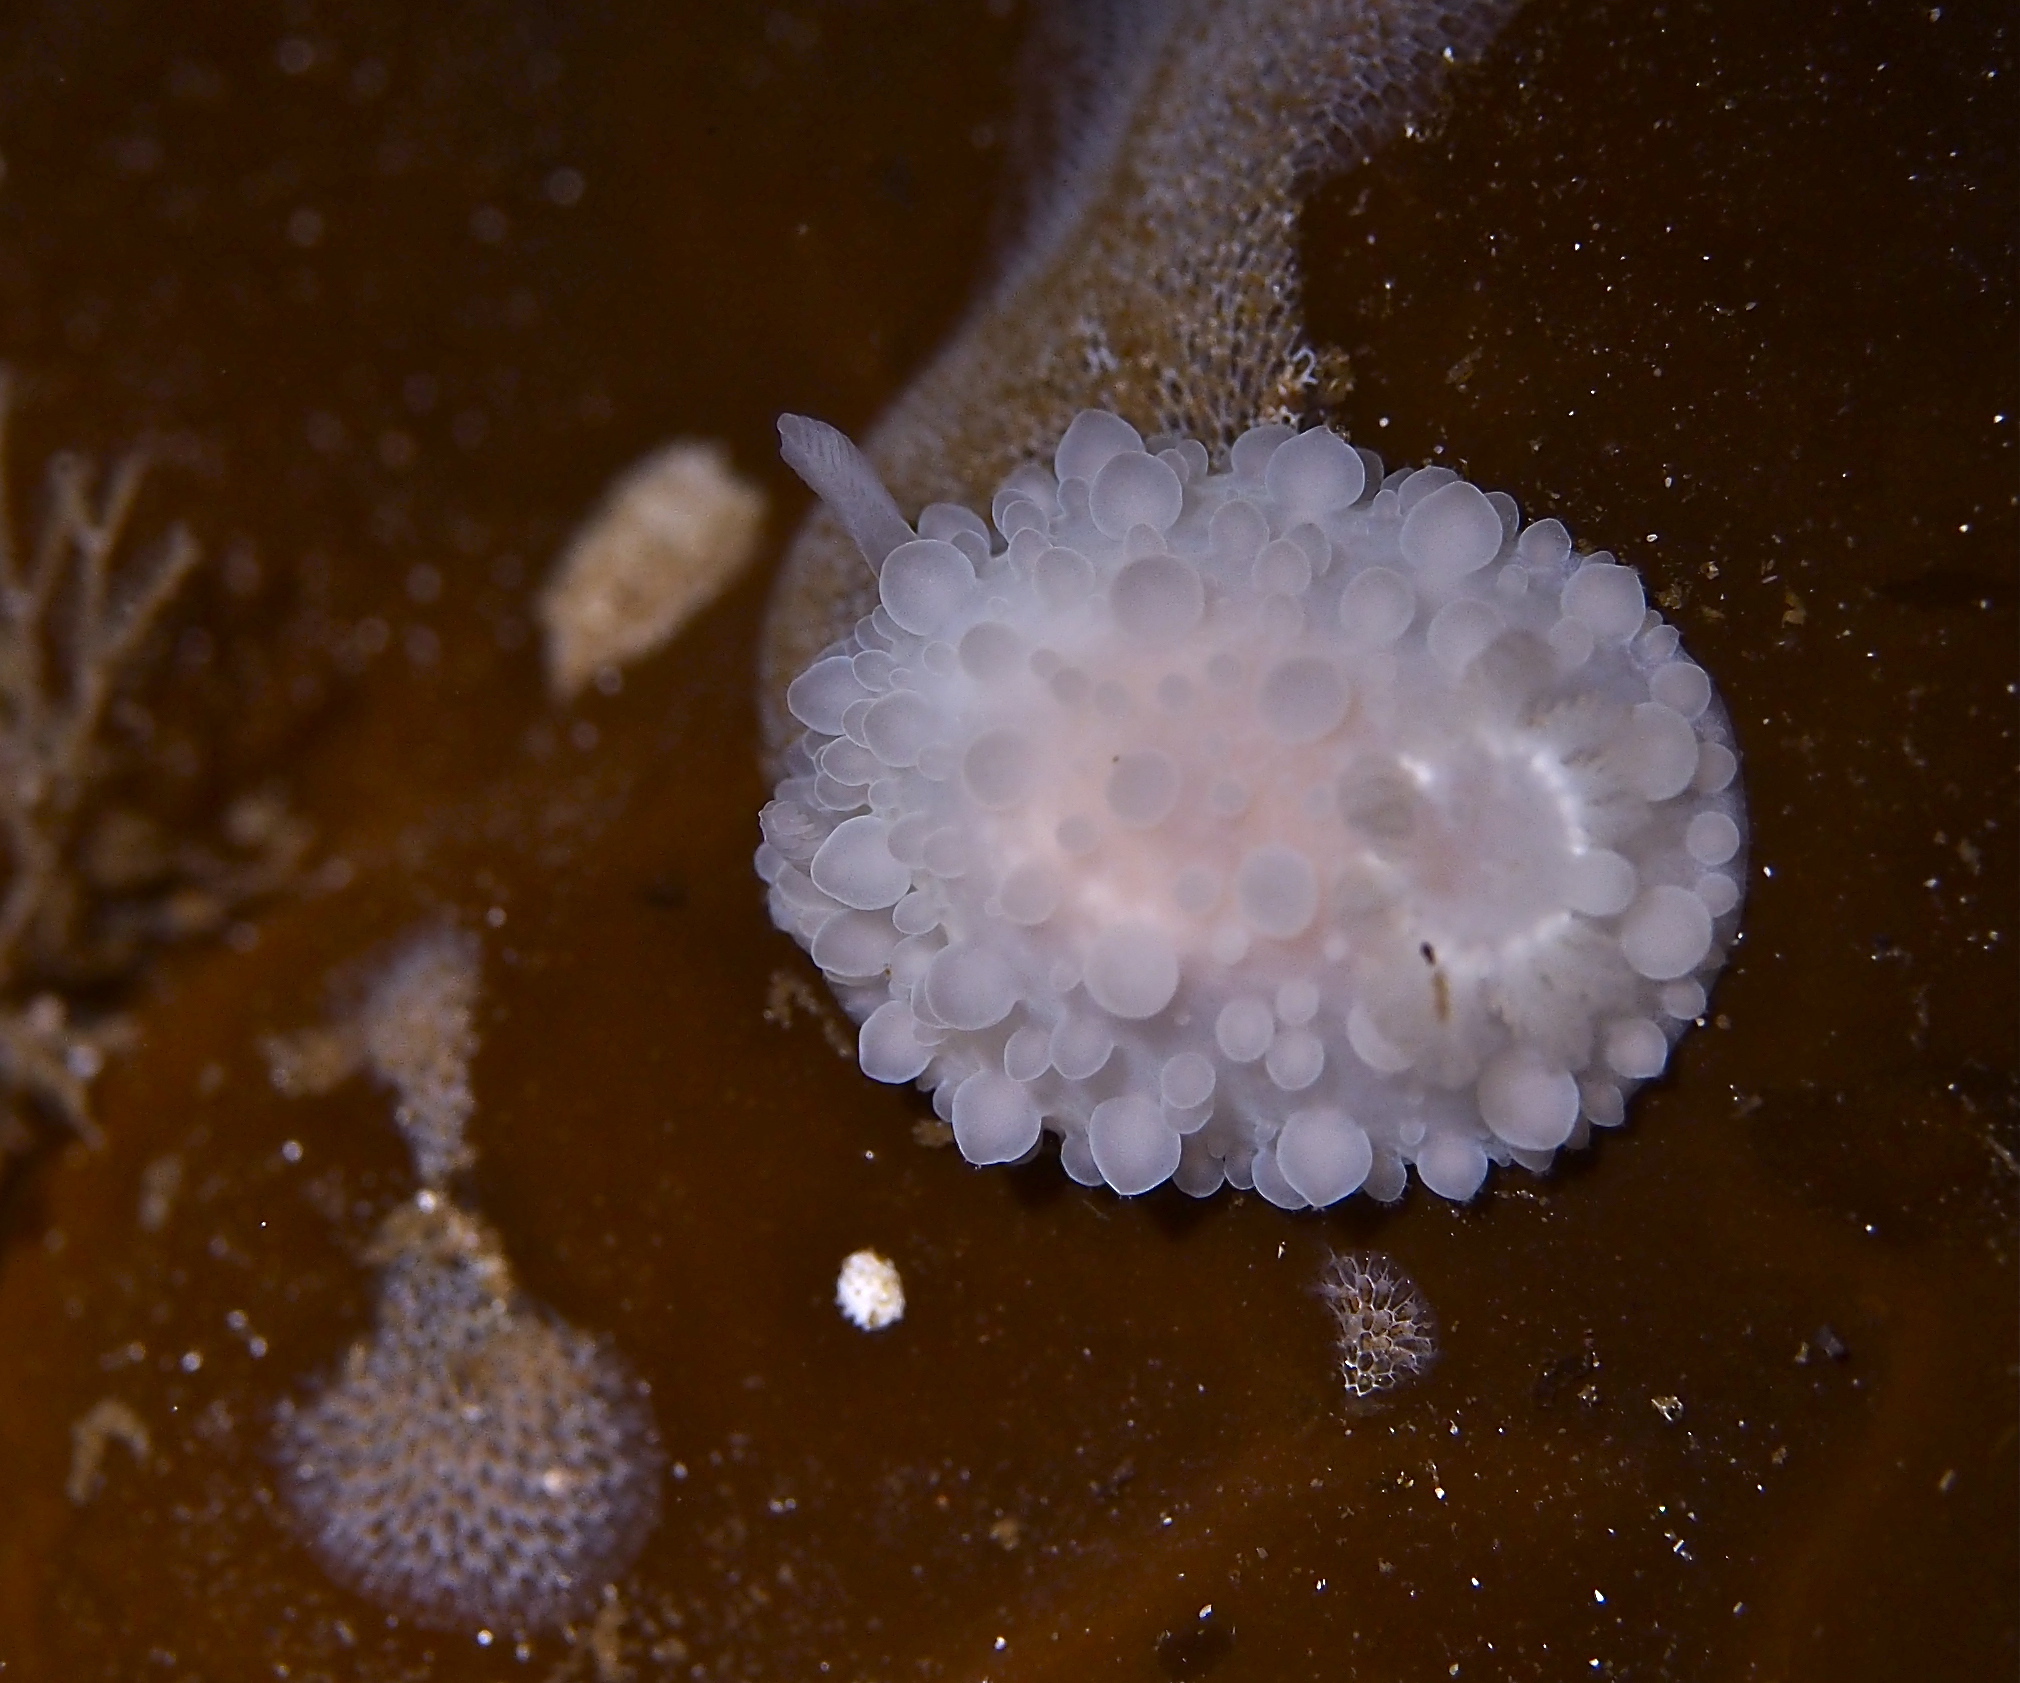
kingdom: Animalia
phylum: Mollusca
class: Gastropoda
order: Nudibranchia
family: Onchidorididae
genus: Adalaria
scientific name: Adalaria loveni
